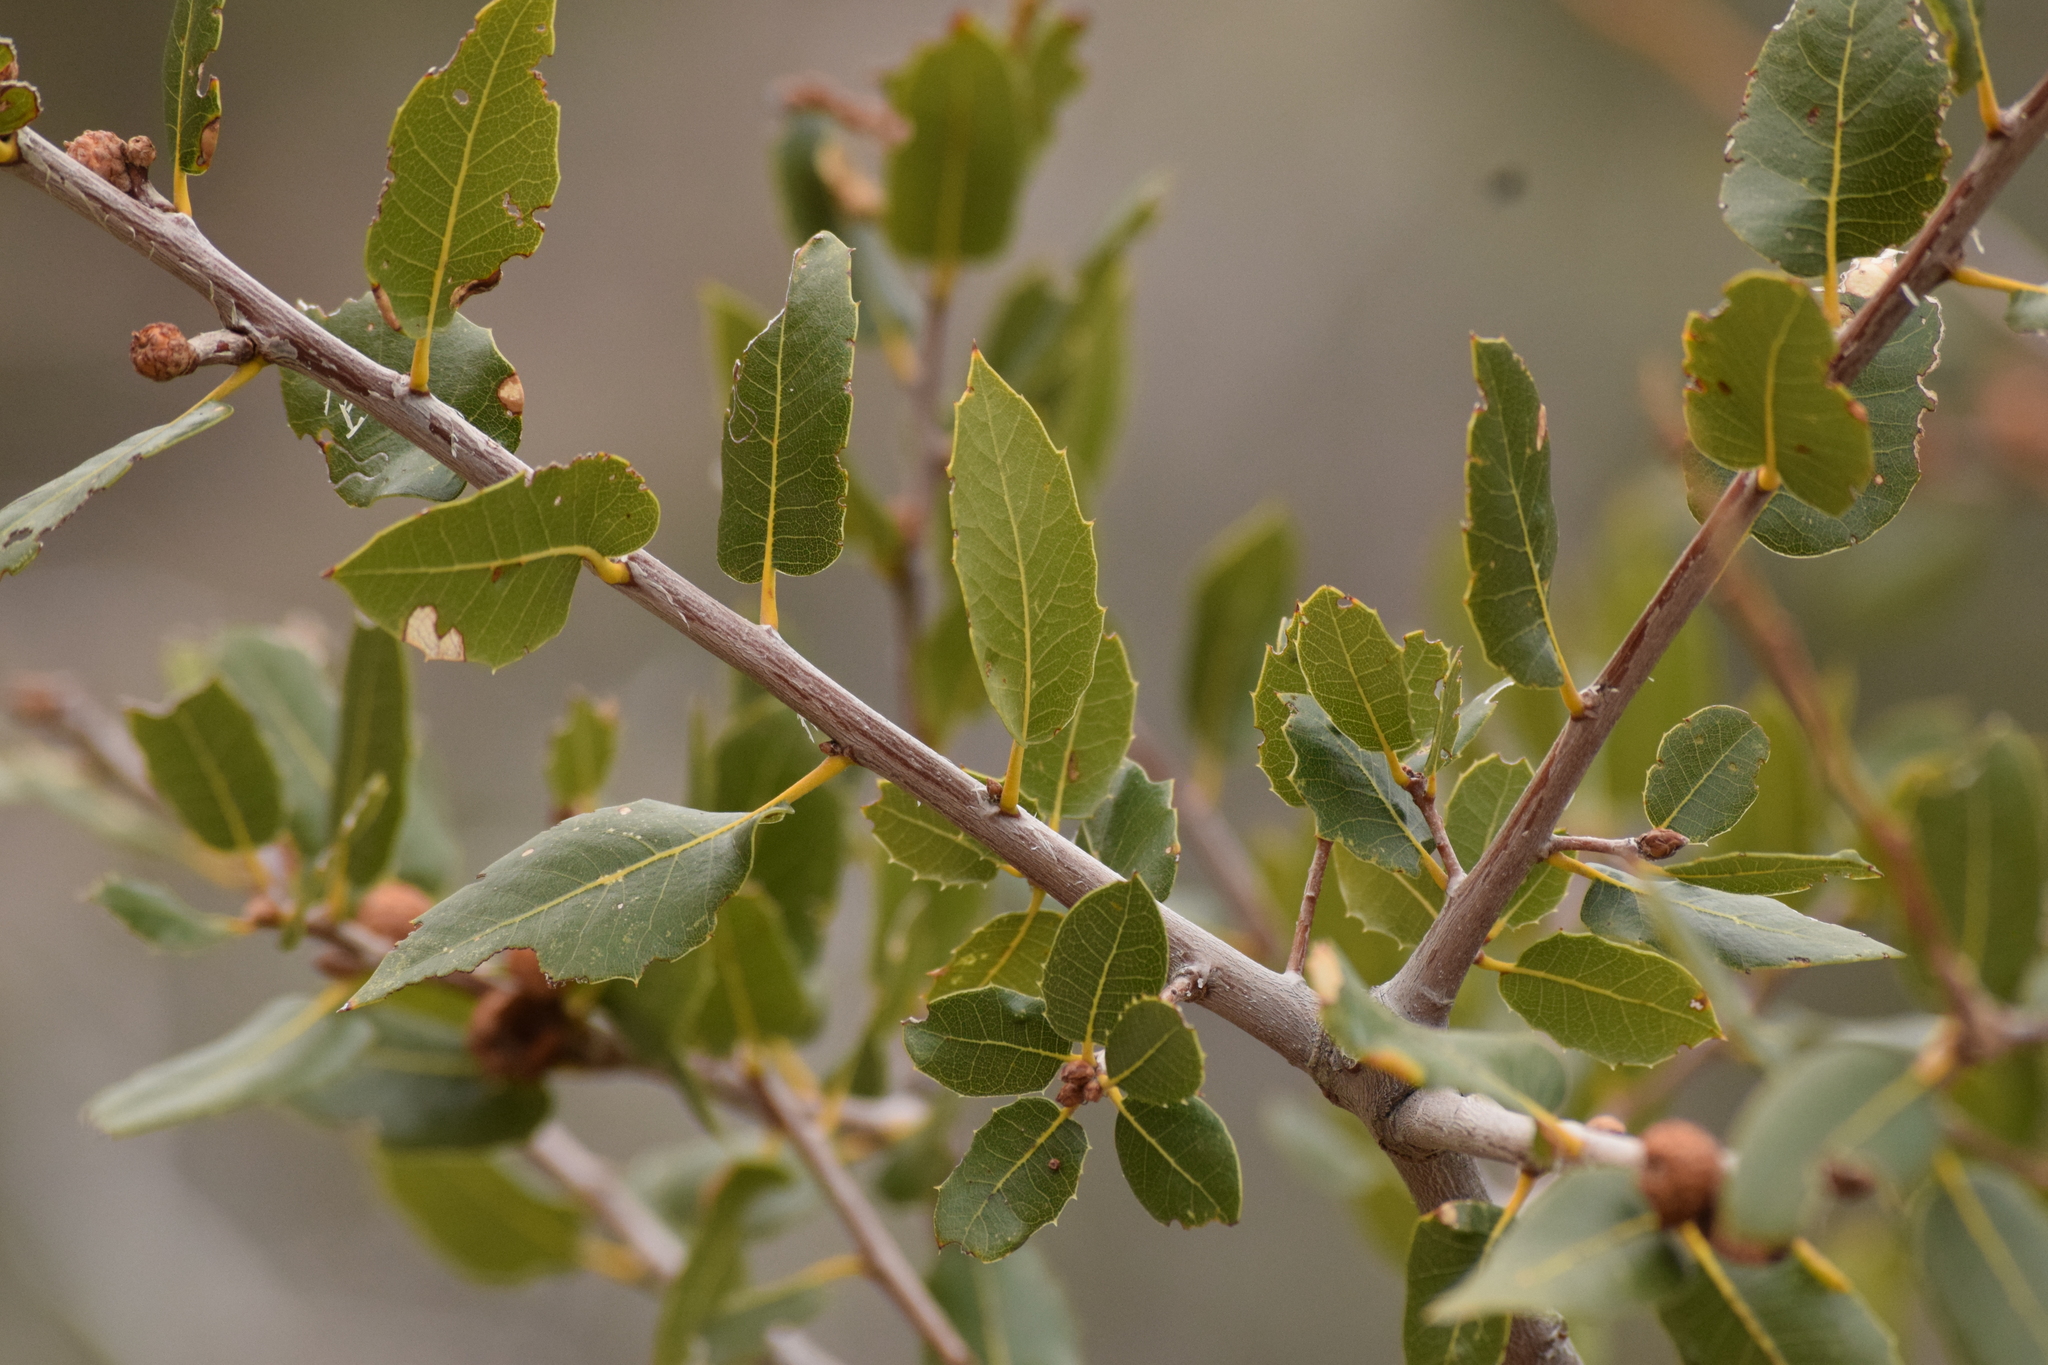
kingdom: Plantae
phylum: Tracheophyta
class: Magnoliopsida
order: Fagales
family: Fagaceae
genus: Quercus
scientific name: Quercus wislizeni
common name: Interior live oak
